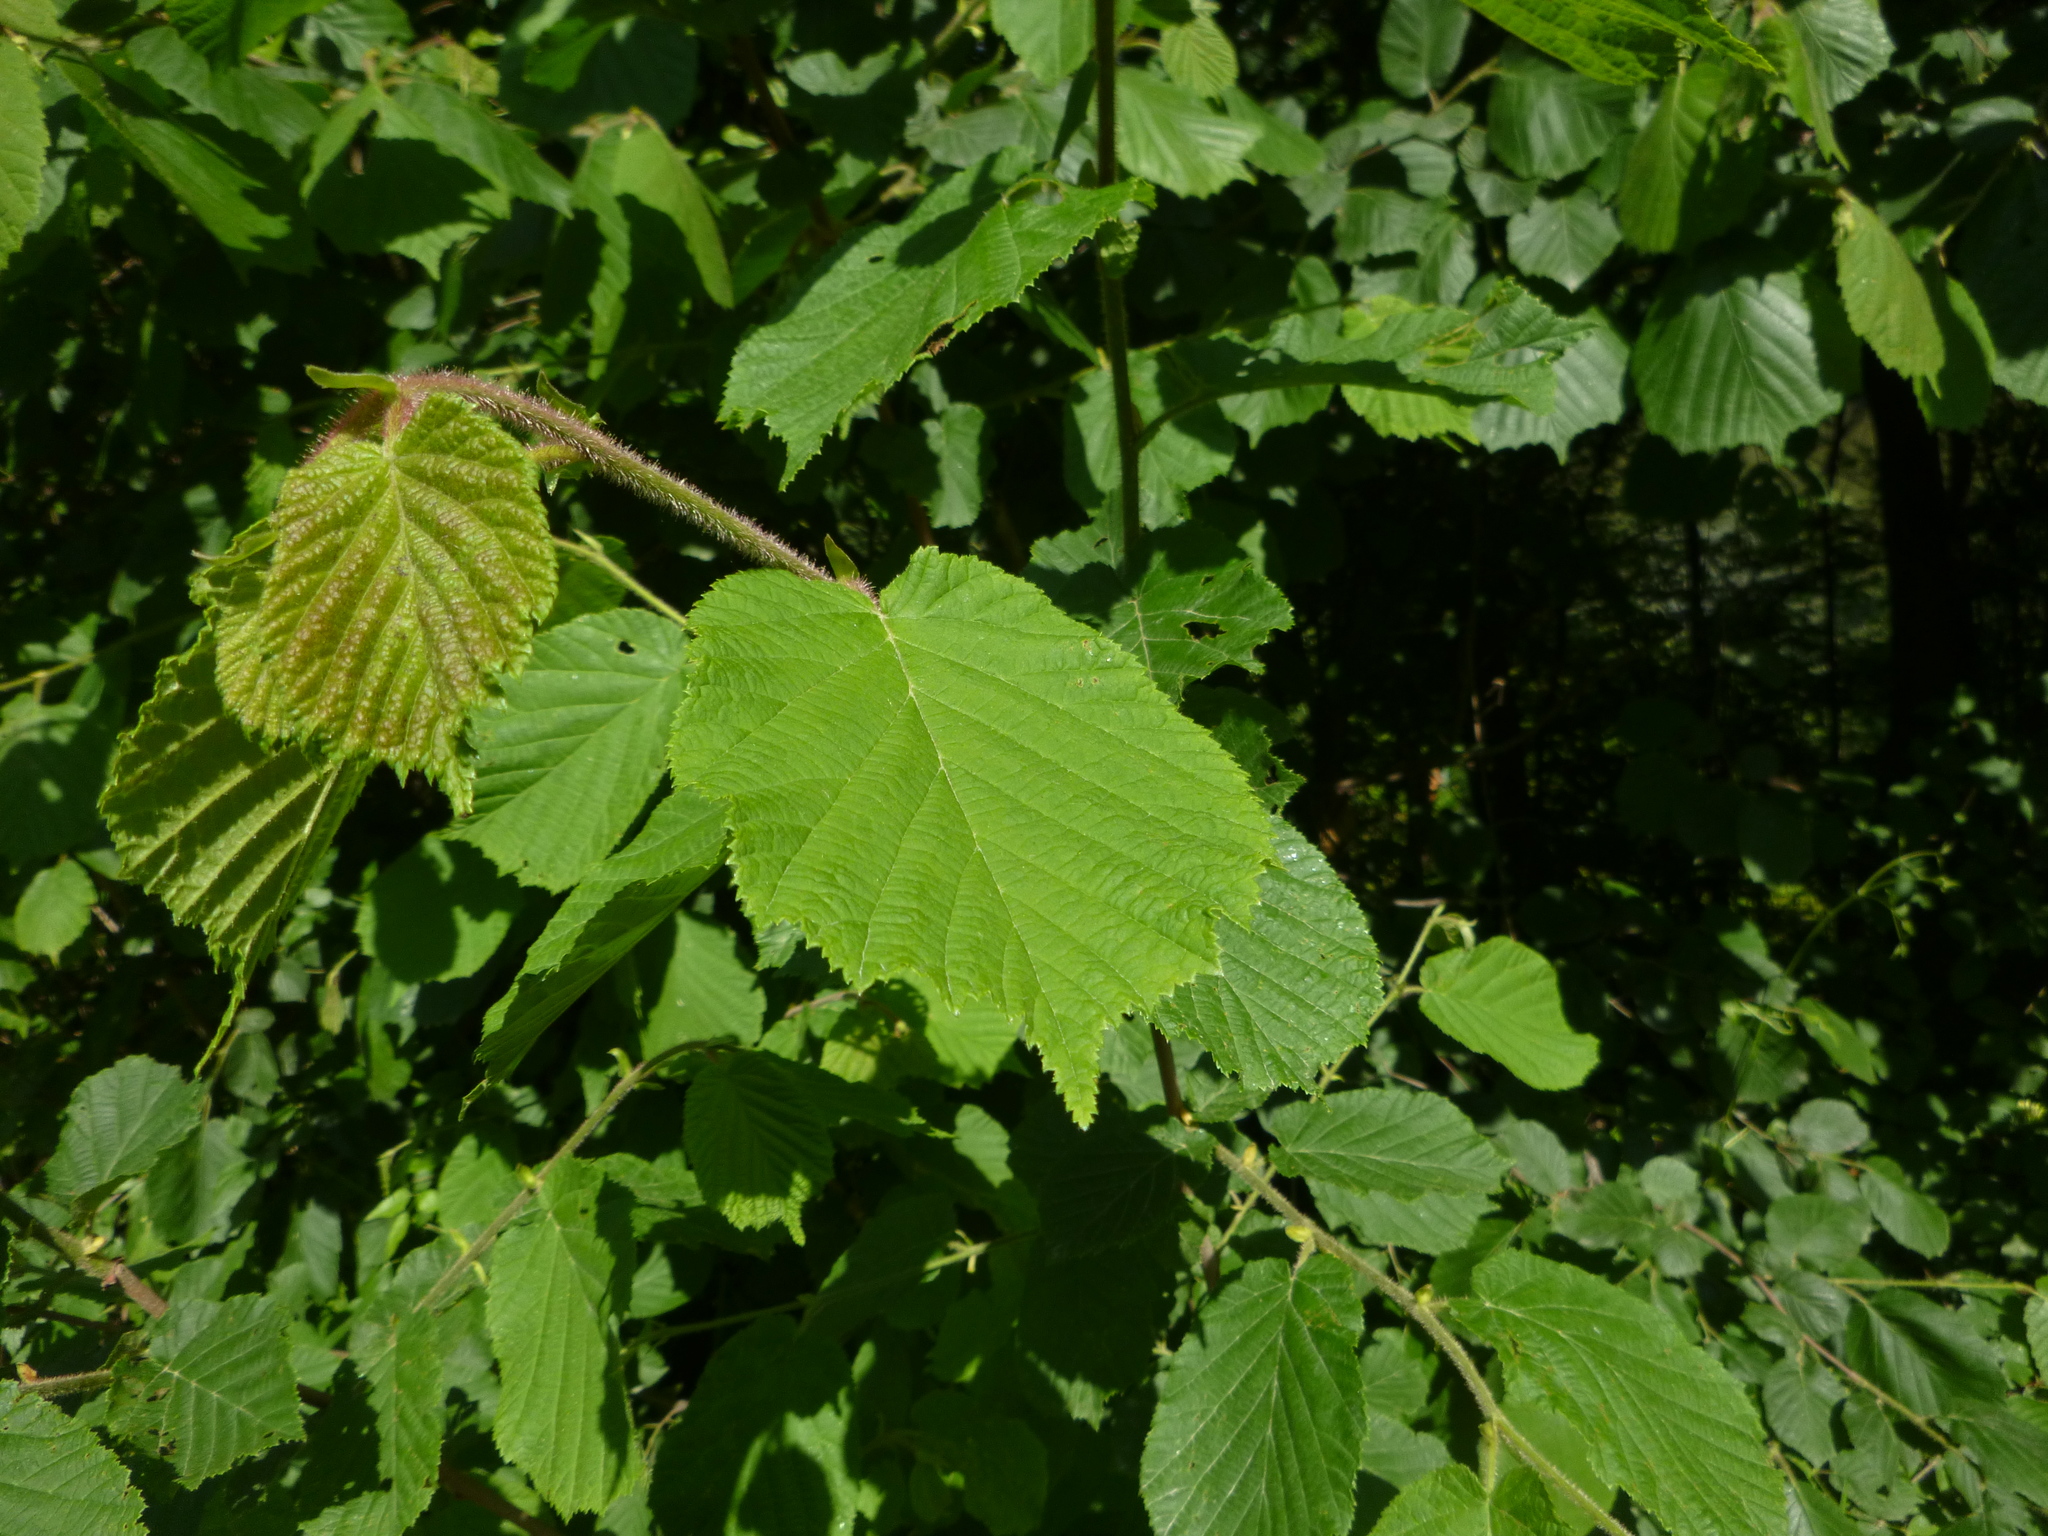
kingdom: Plantae
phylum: Tracheophyta
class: Magnoliopsida
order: Fagales
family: Betulaceae
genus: Corylus
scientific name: Corylus avellana
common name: European hazel
